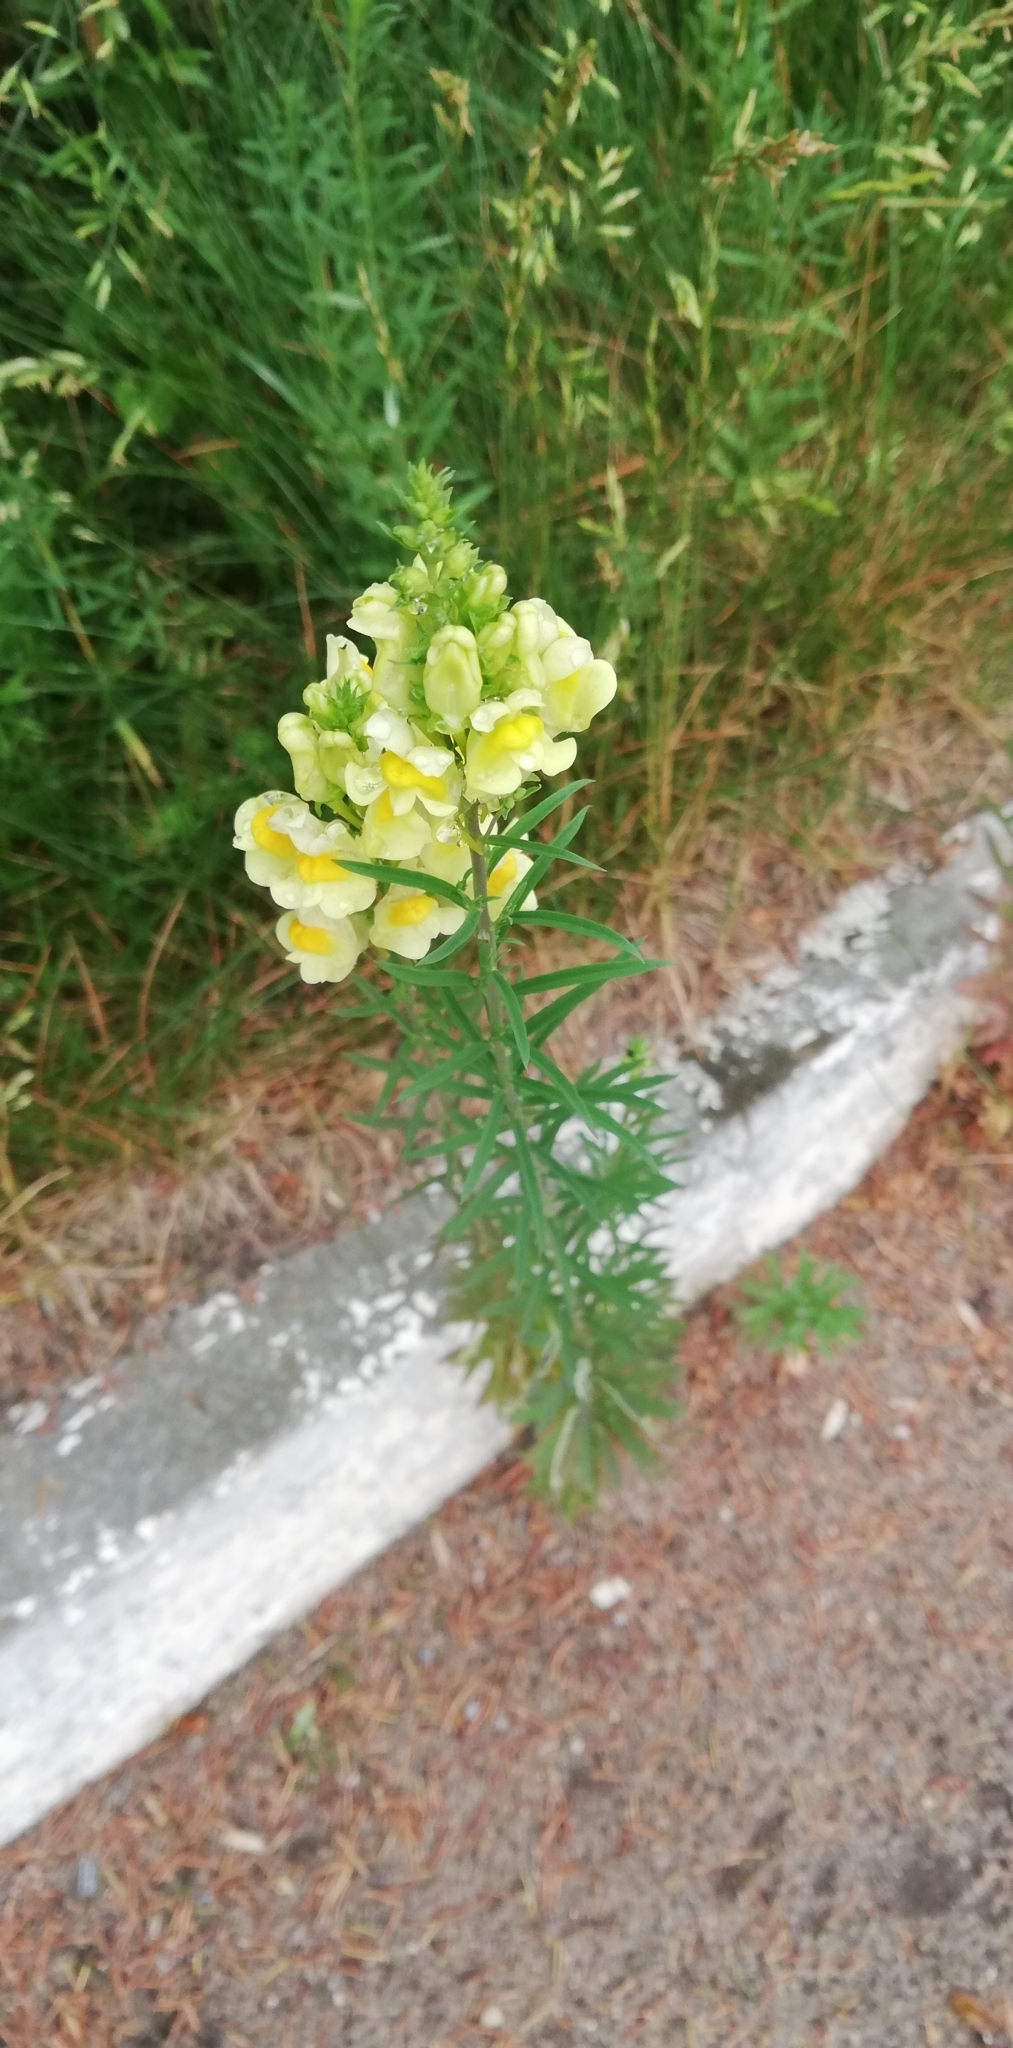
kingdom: Plantae
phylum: Tracheophyta
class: Magnoliopsida
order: Lamiales
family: Plantaginaceae
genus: Linaria
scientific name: Linaria vulgaris
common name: Butter and eggs
